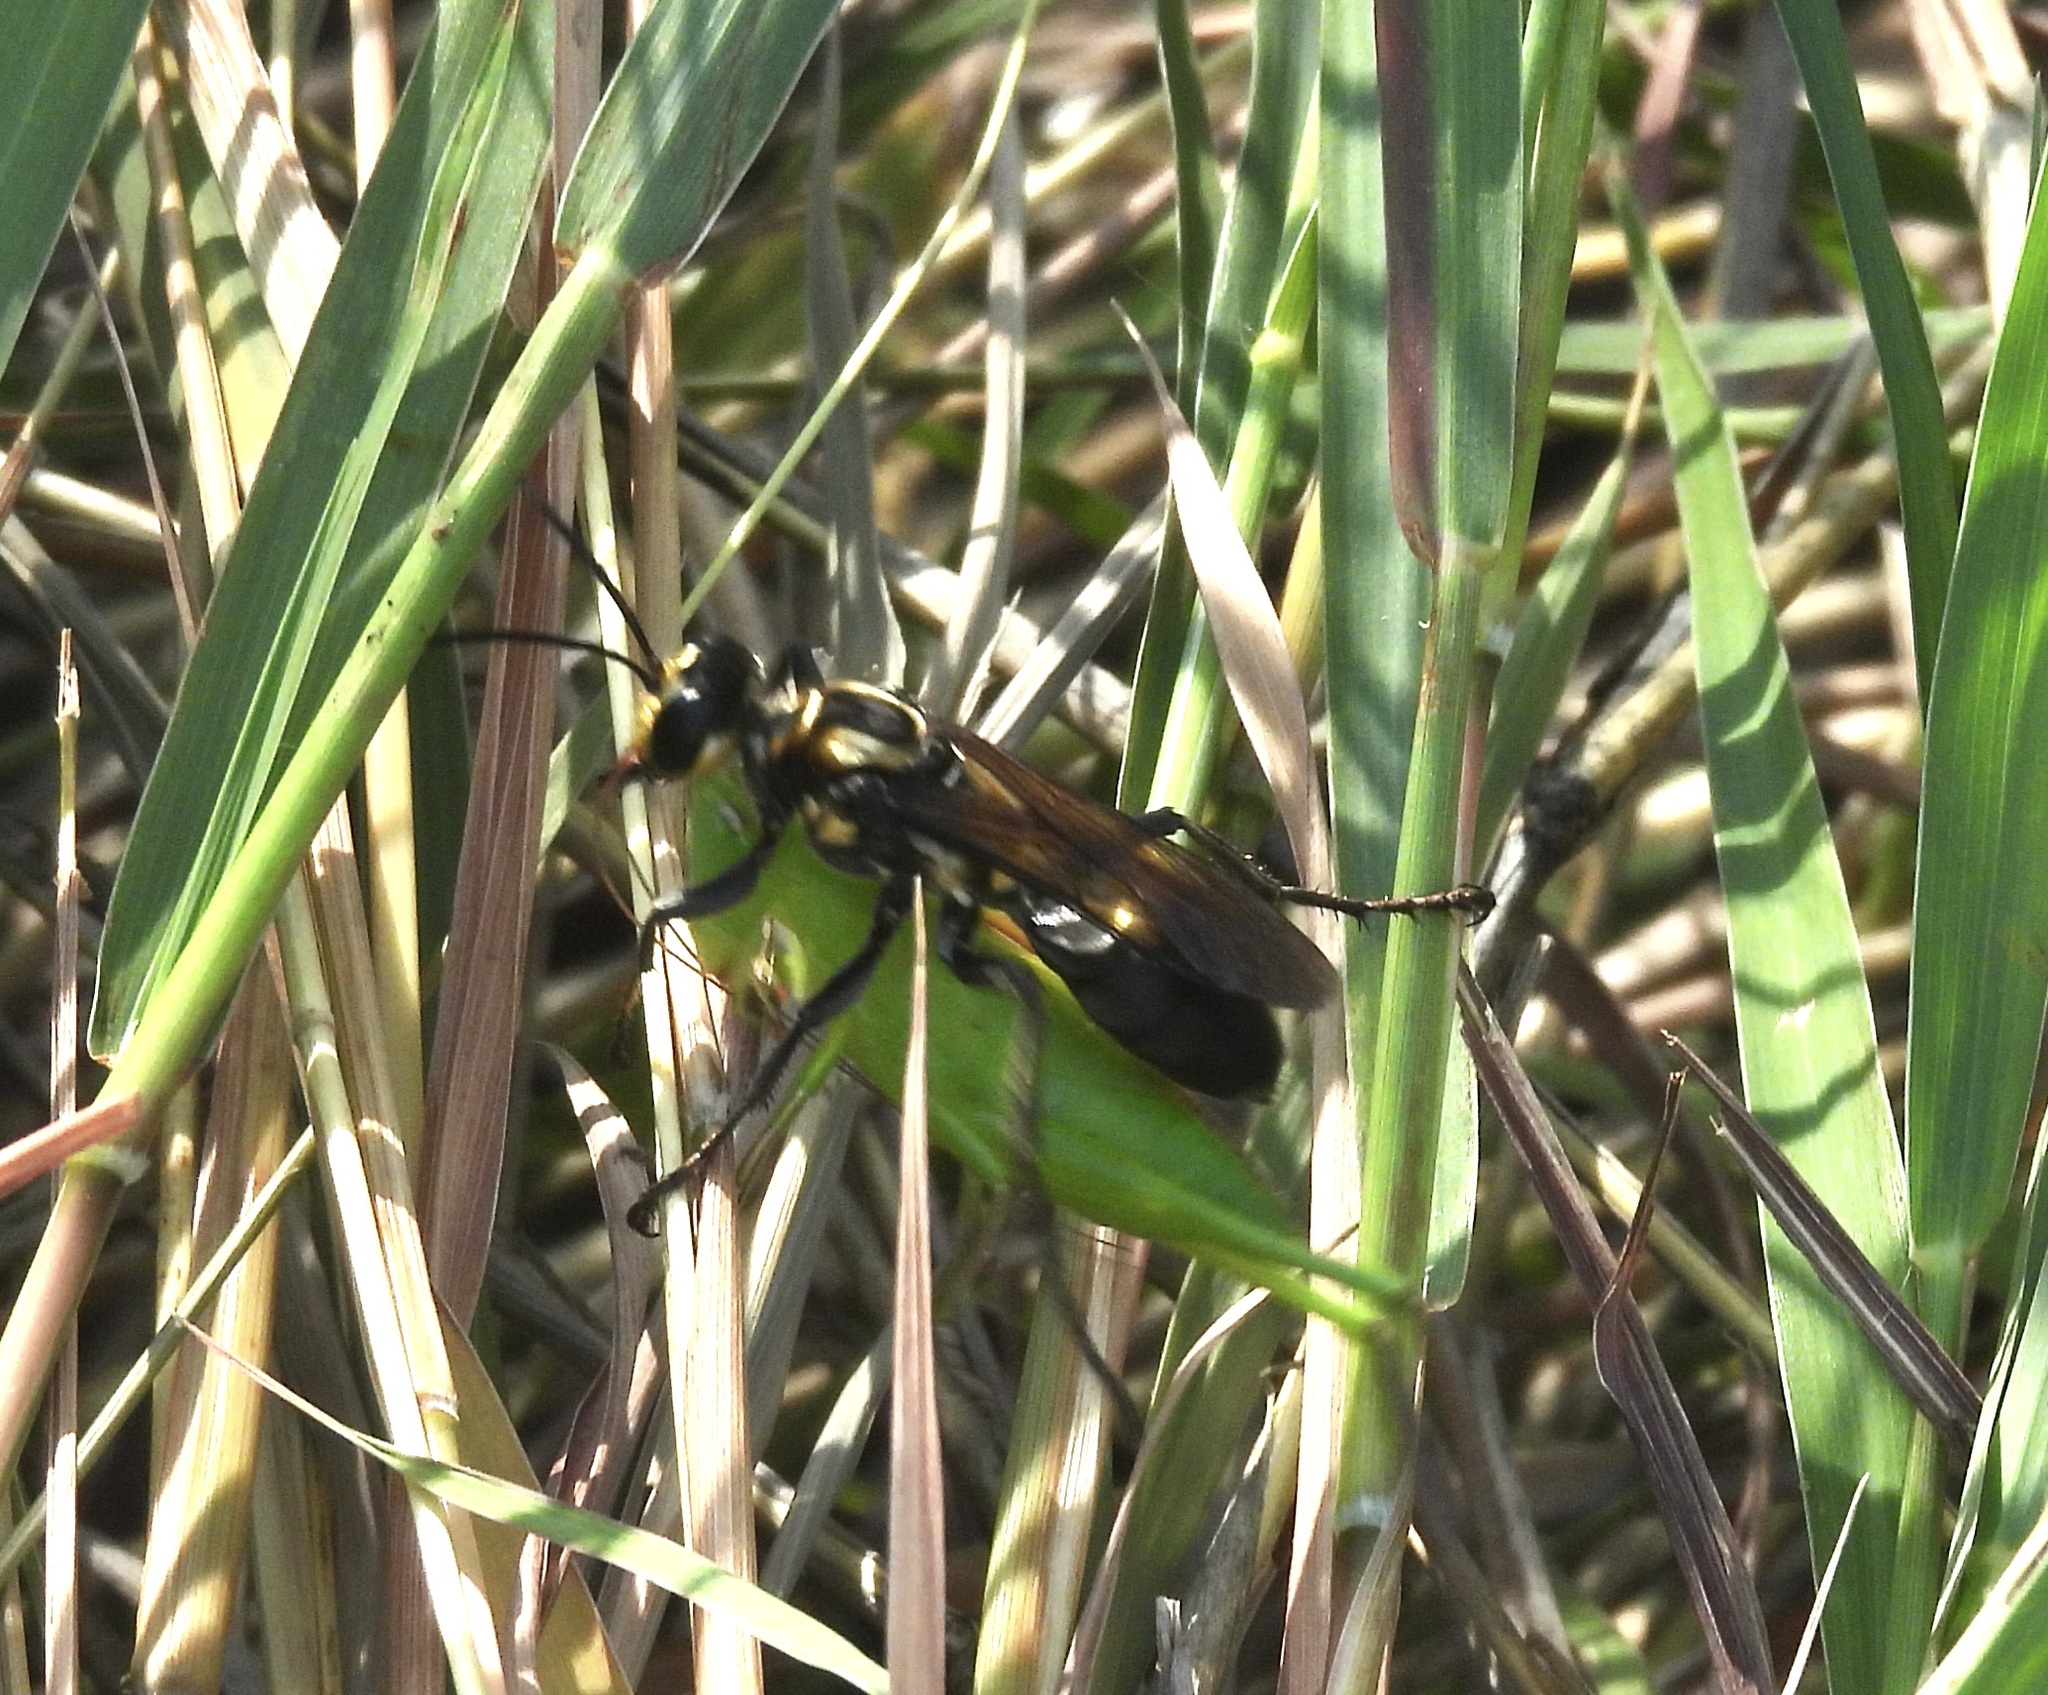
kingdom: Animalia
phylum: Arthropoda
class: Insecta
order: Hymenoptera
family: Sphecidae
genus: Sphex
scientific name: Sphex habenus
